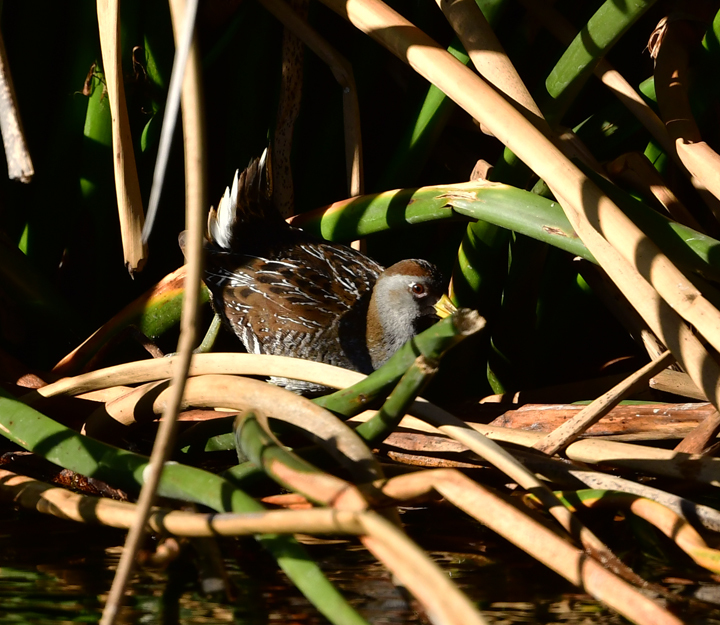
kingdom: Animalia
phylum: Chordata
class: Aves
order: Gruiformes
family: Rallidae
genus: Porzana
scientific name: Porzana carolina
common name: Sora
